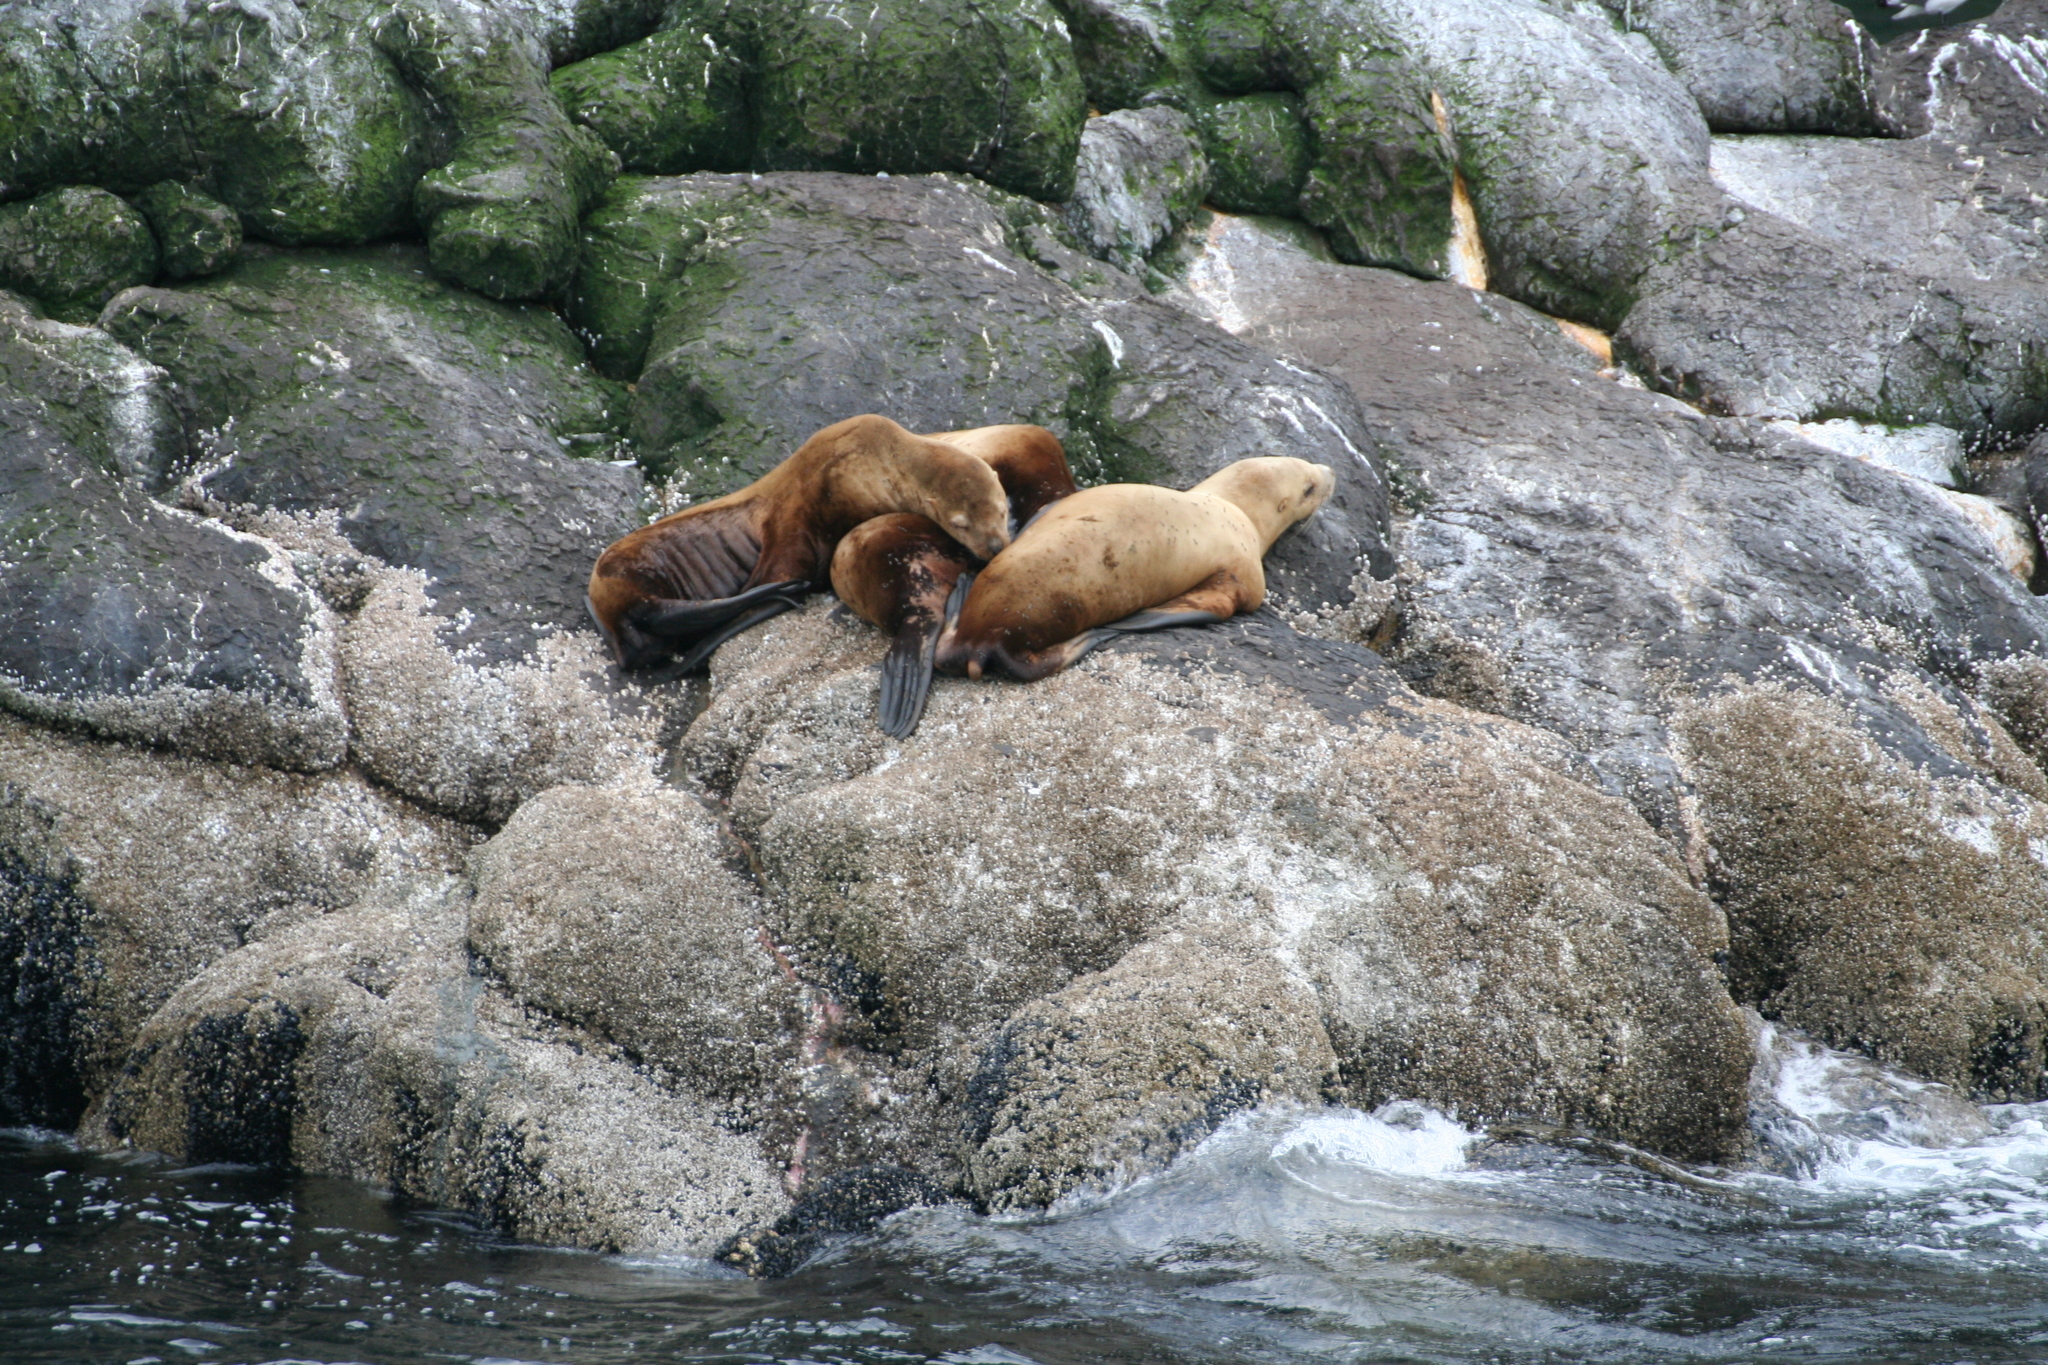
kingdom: Animalia
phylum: Chordata
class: Mammalia
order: Carnivora
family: Otariidae
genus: Eumetopias
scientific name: Eumetopias jubatus
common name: Steller sea lion
